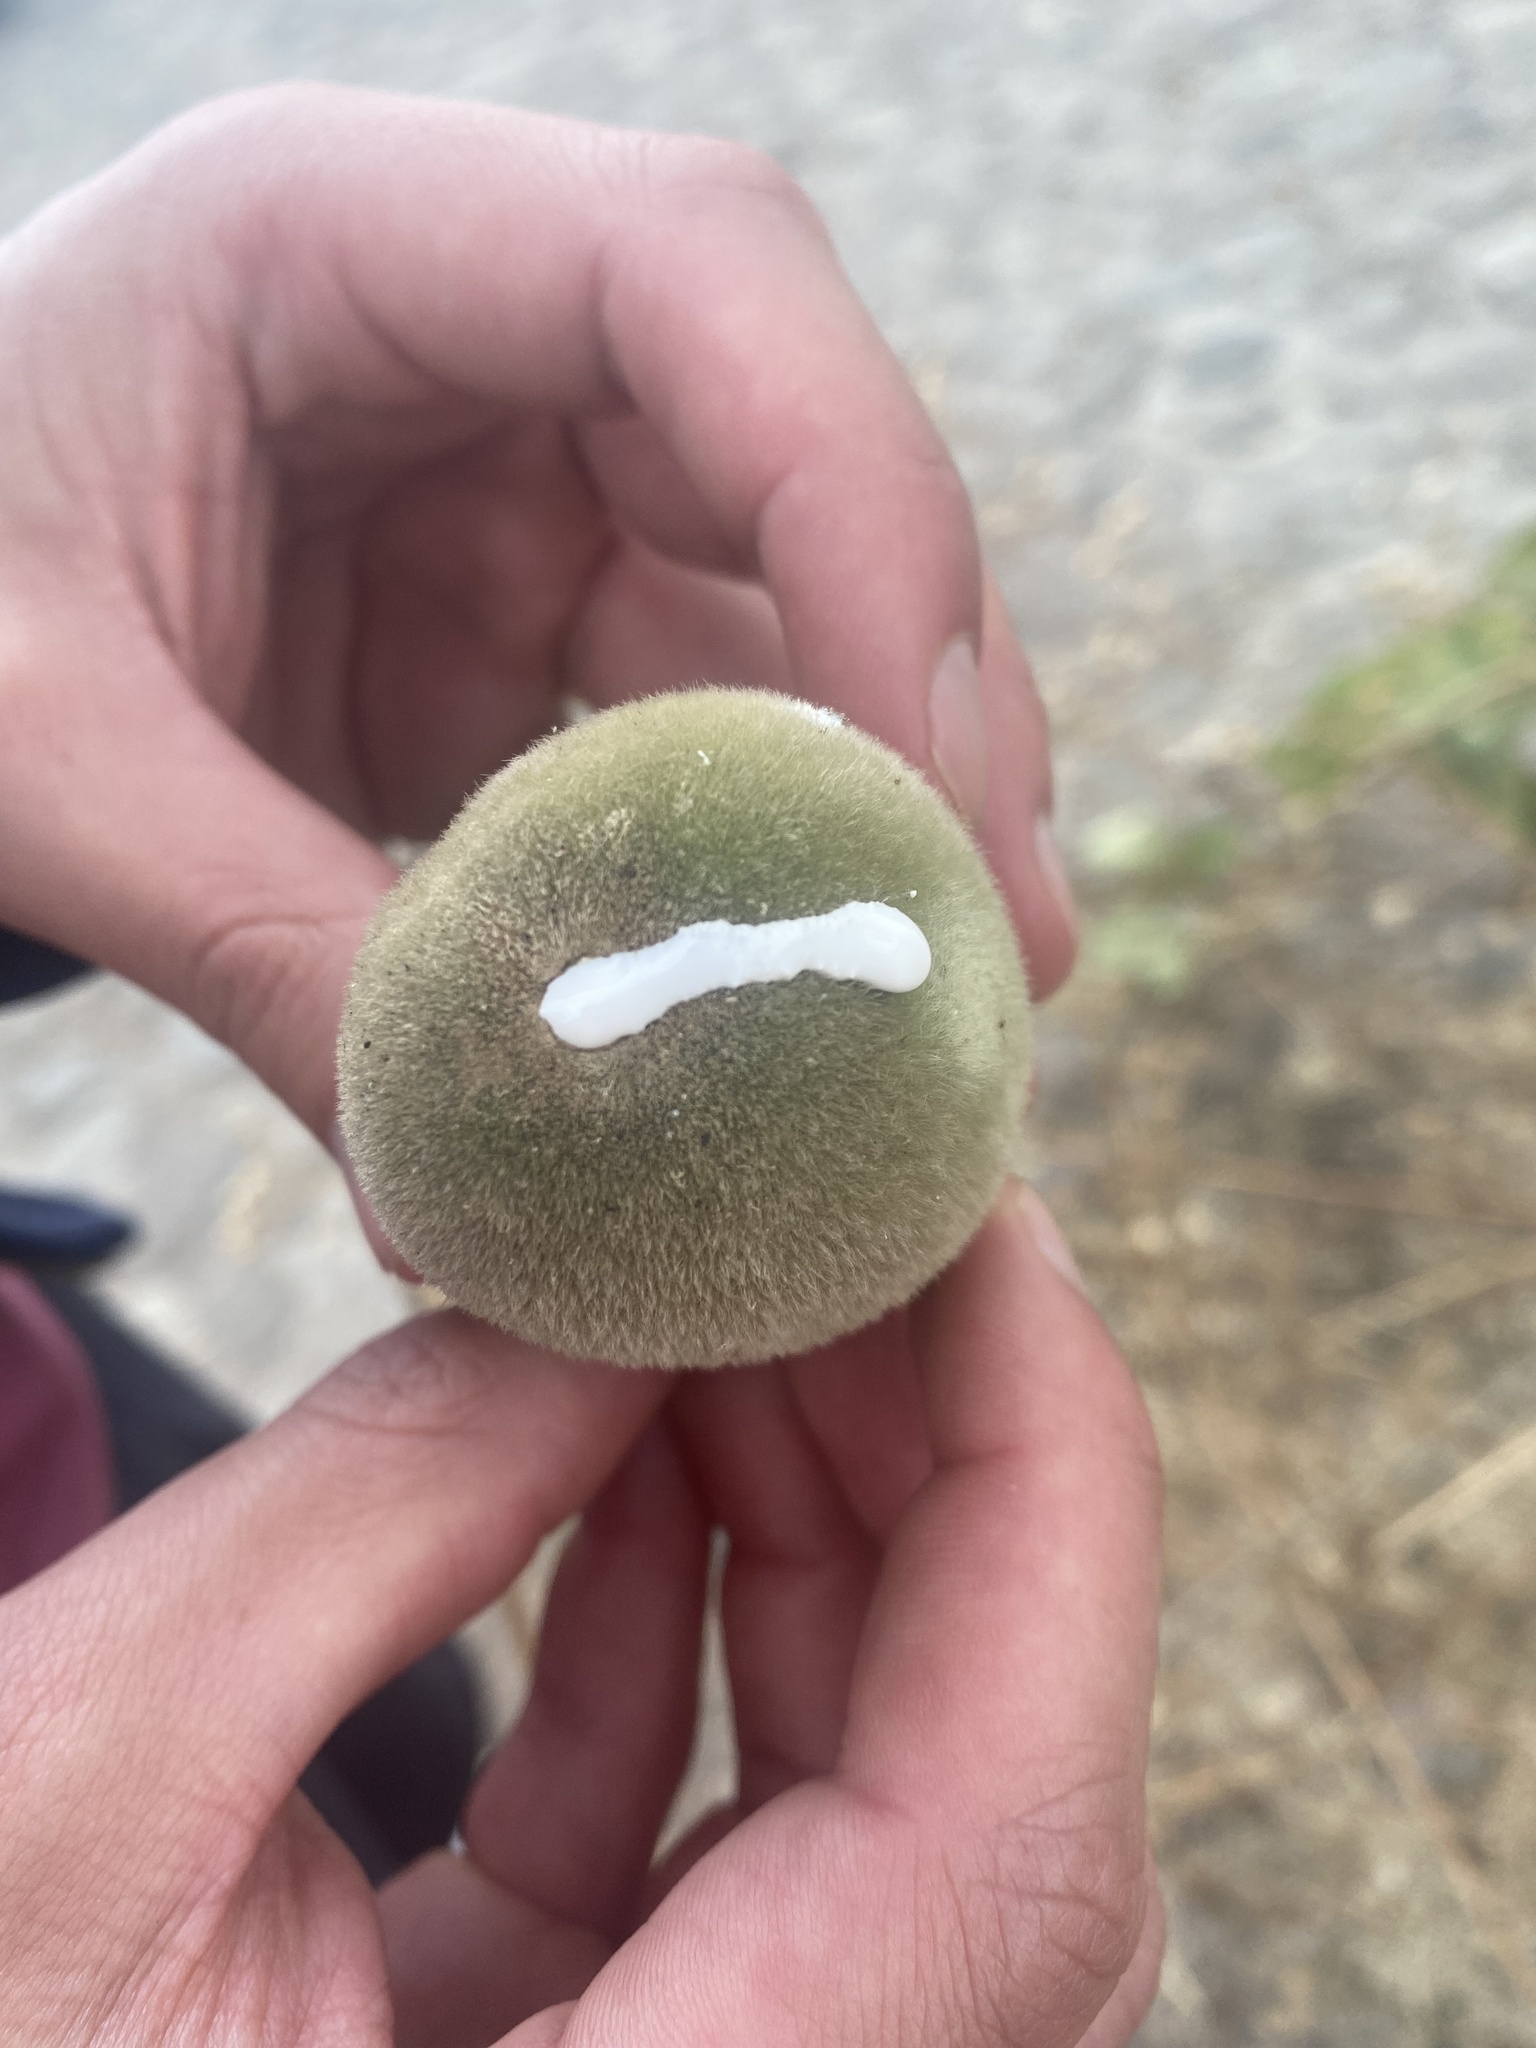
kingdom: Plantae
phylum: Tracheophyta
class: Magnoliopsida
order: Gentianales
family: Apocynaceae
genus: Ruehssia
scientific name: Ruehssia mexicana
